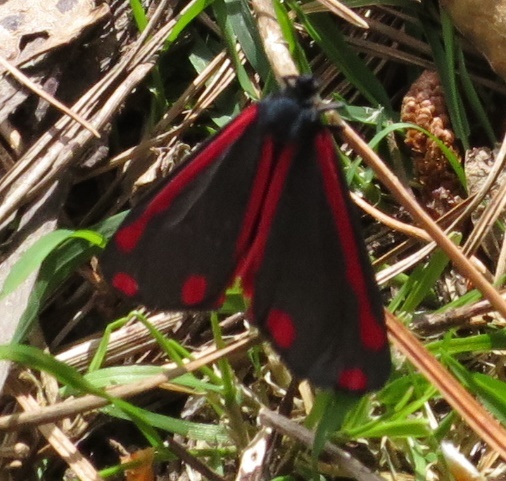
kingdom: Animalia
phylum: Arthropoda
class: Insecta
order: Lepidoptera
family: Erebidae
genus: Tyria
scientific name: Tyria jacobaeae
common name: Cinnabar
